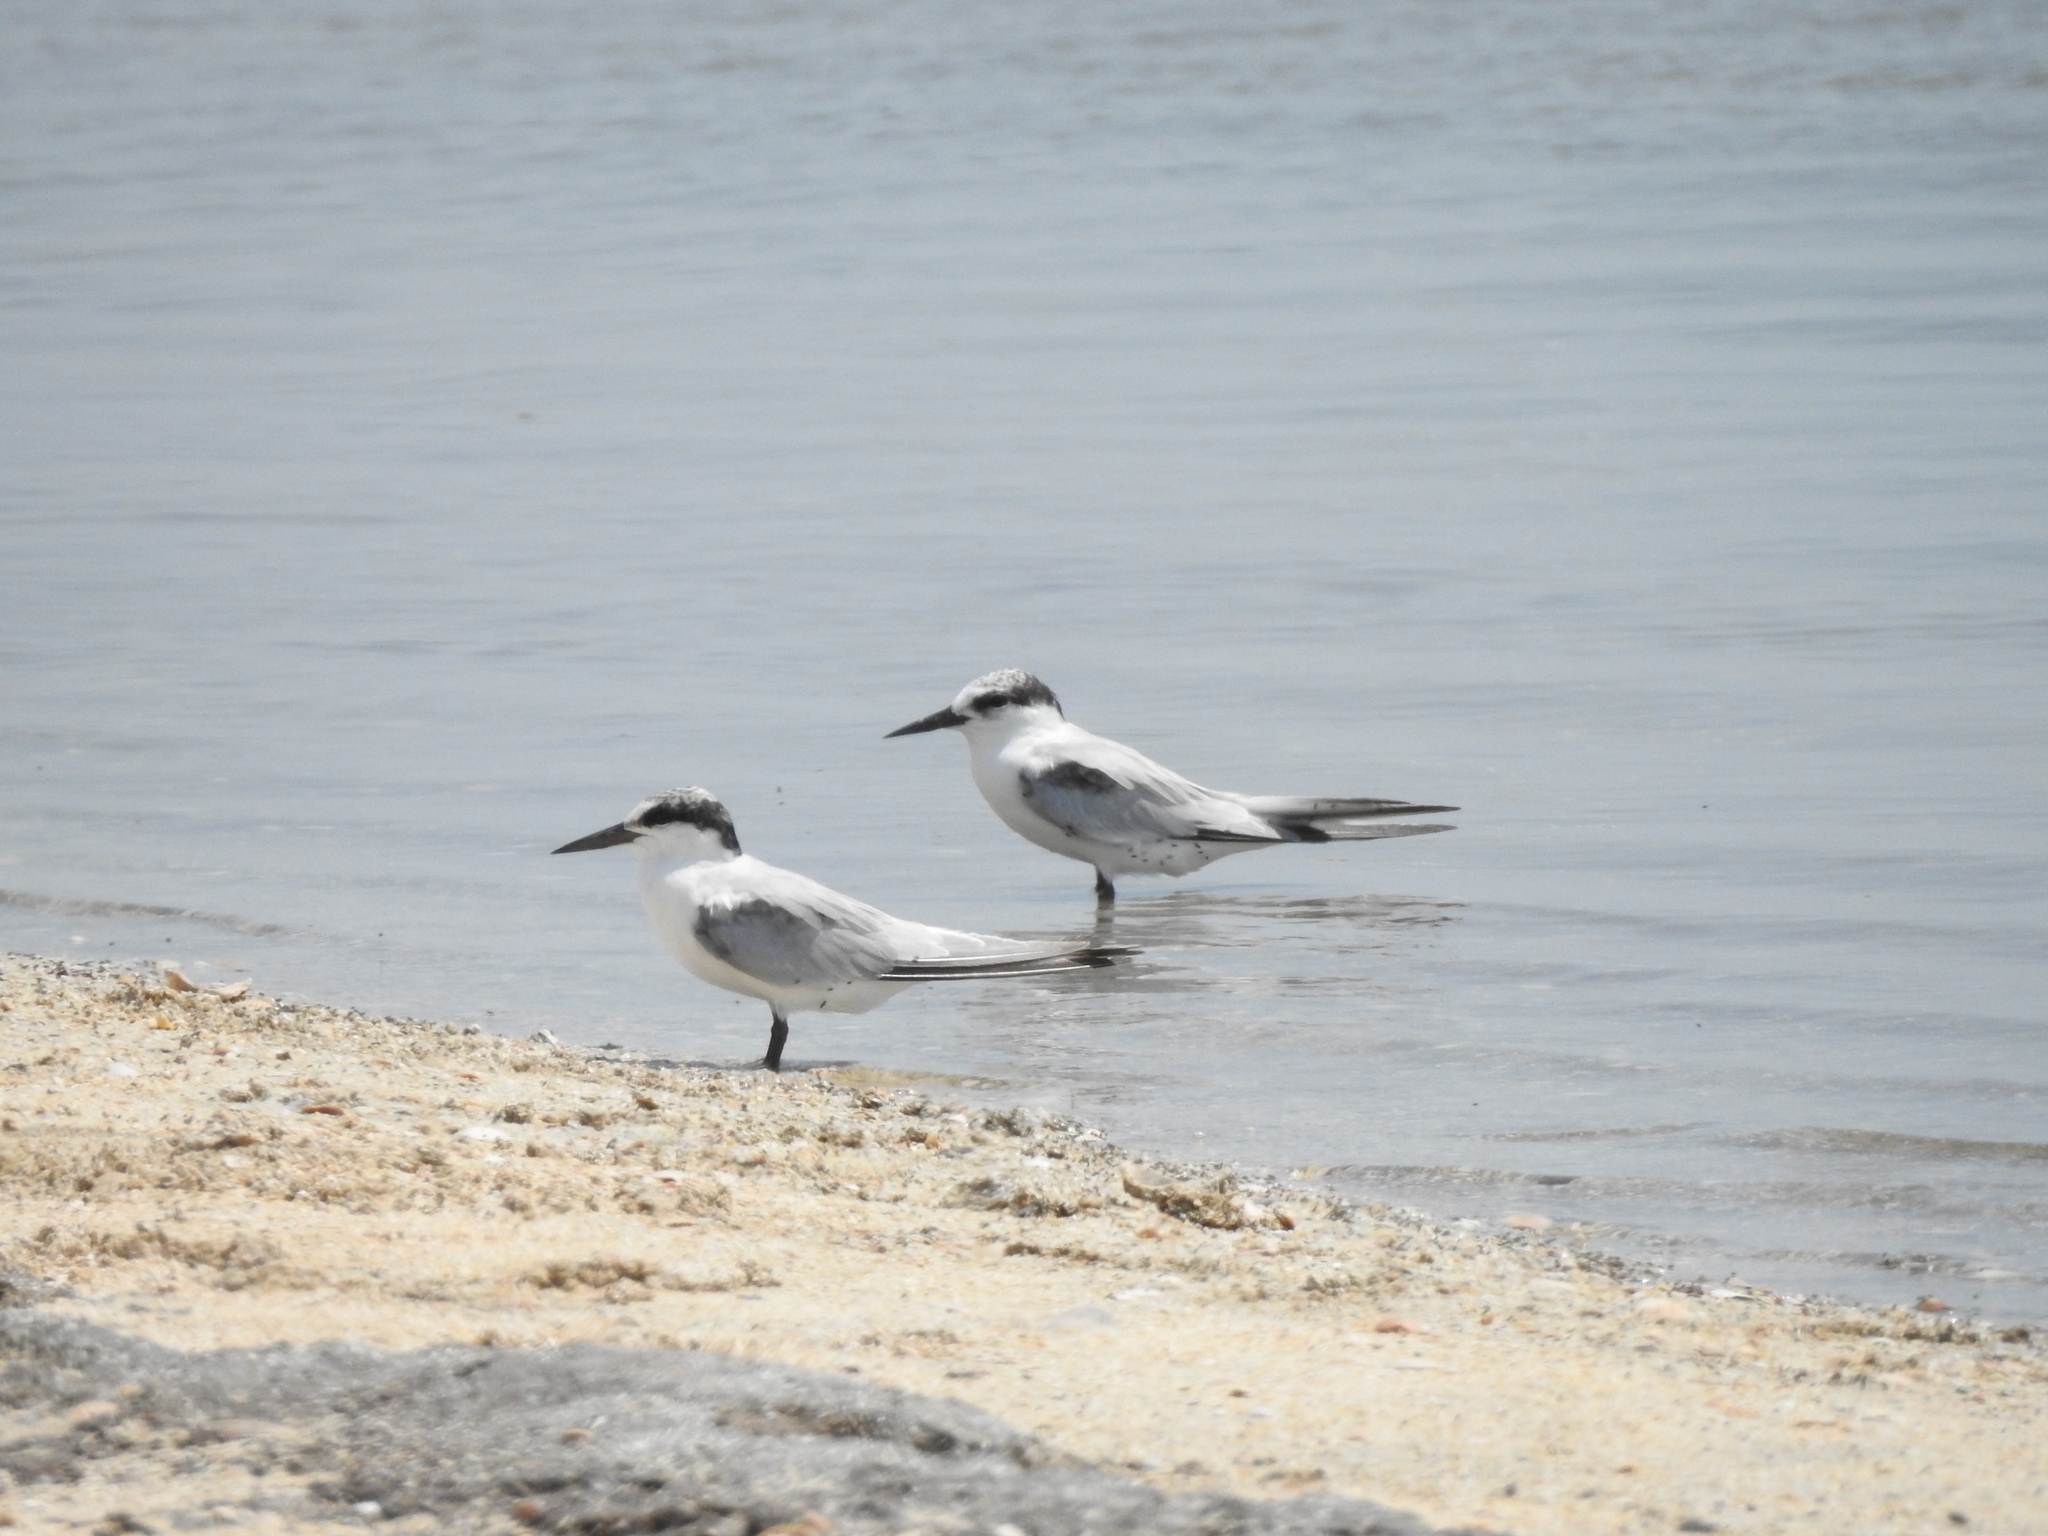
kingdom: Animalia
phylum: Chordata
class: Aves
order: Charadriiformes
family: Laridae
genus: Sternula
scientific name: Sternula antillarum
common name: Least tern
